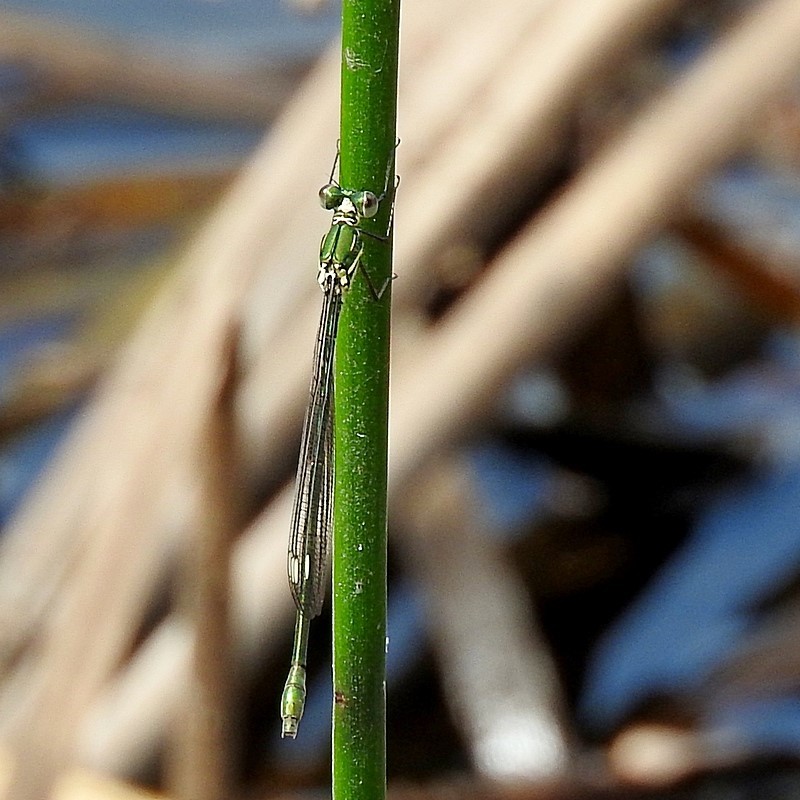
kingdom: Animalia
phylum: Arthropoda
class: Insecta
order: Odonata
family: Synlestidae
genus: Synlestes
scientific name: Synlestes weyersii
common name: Bronze needle
